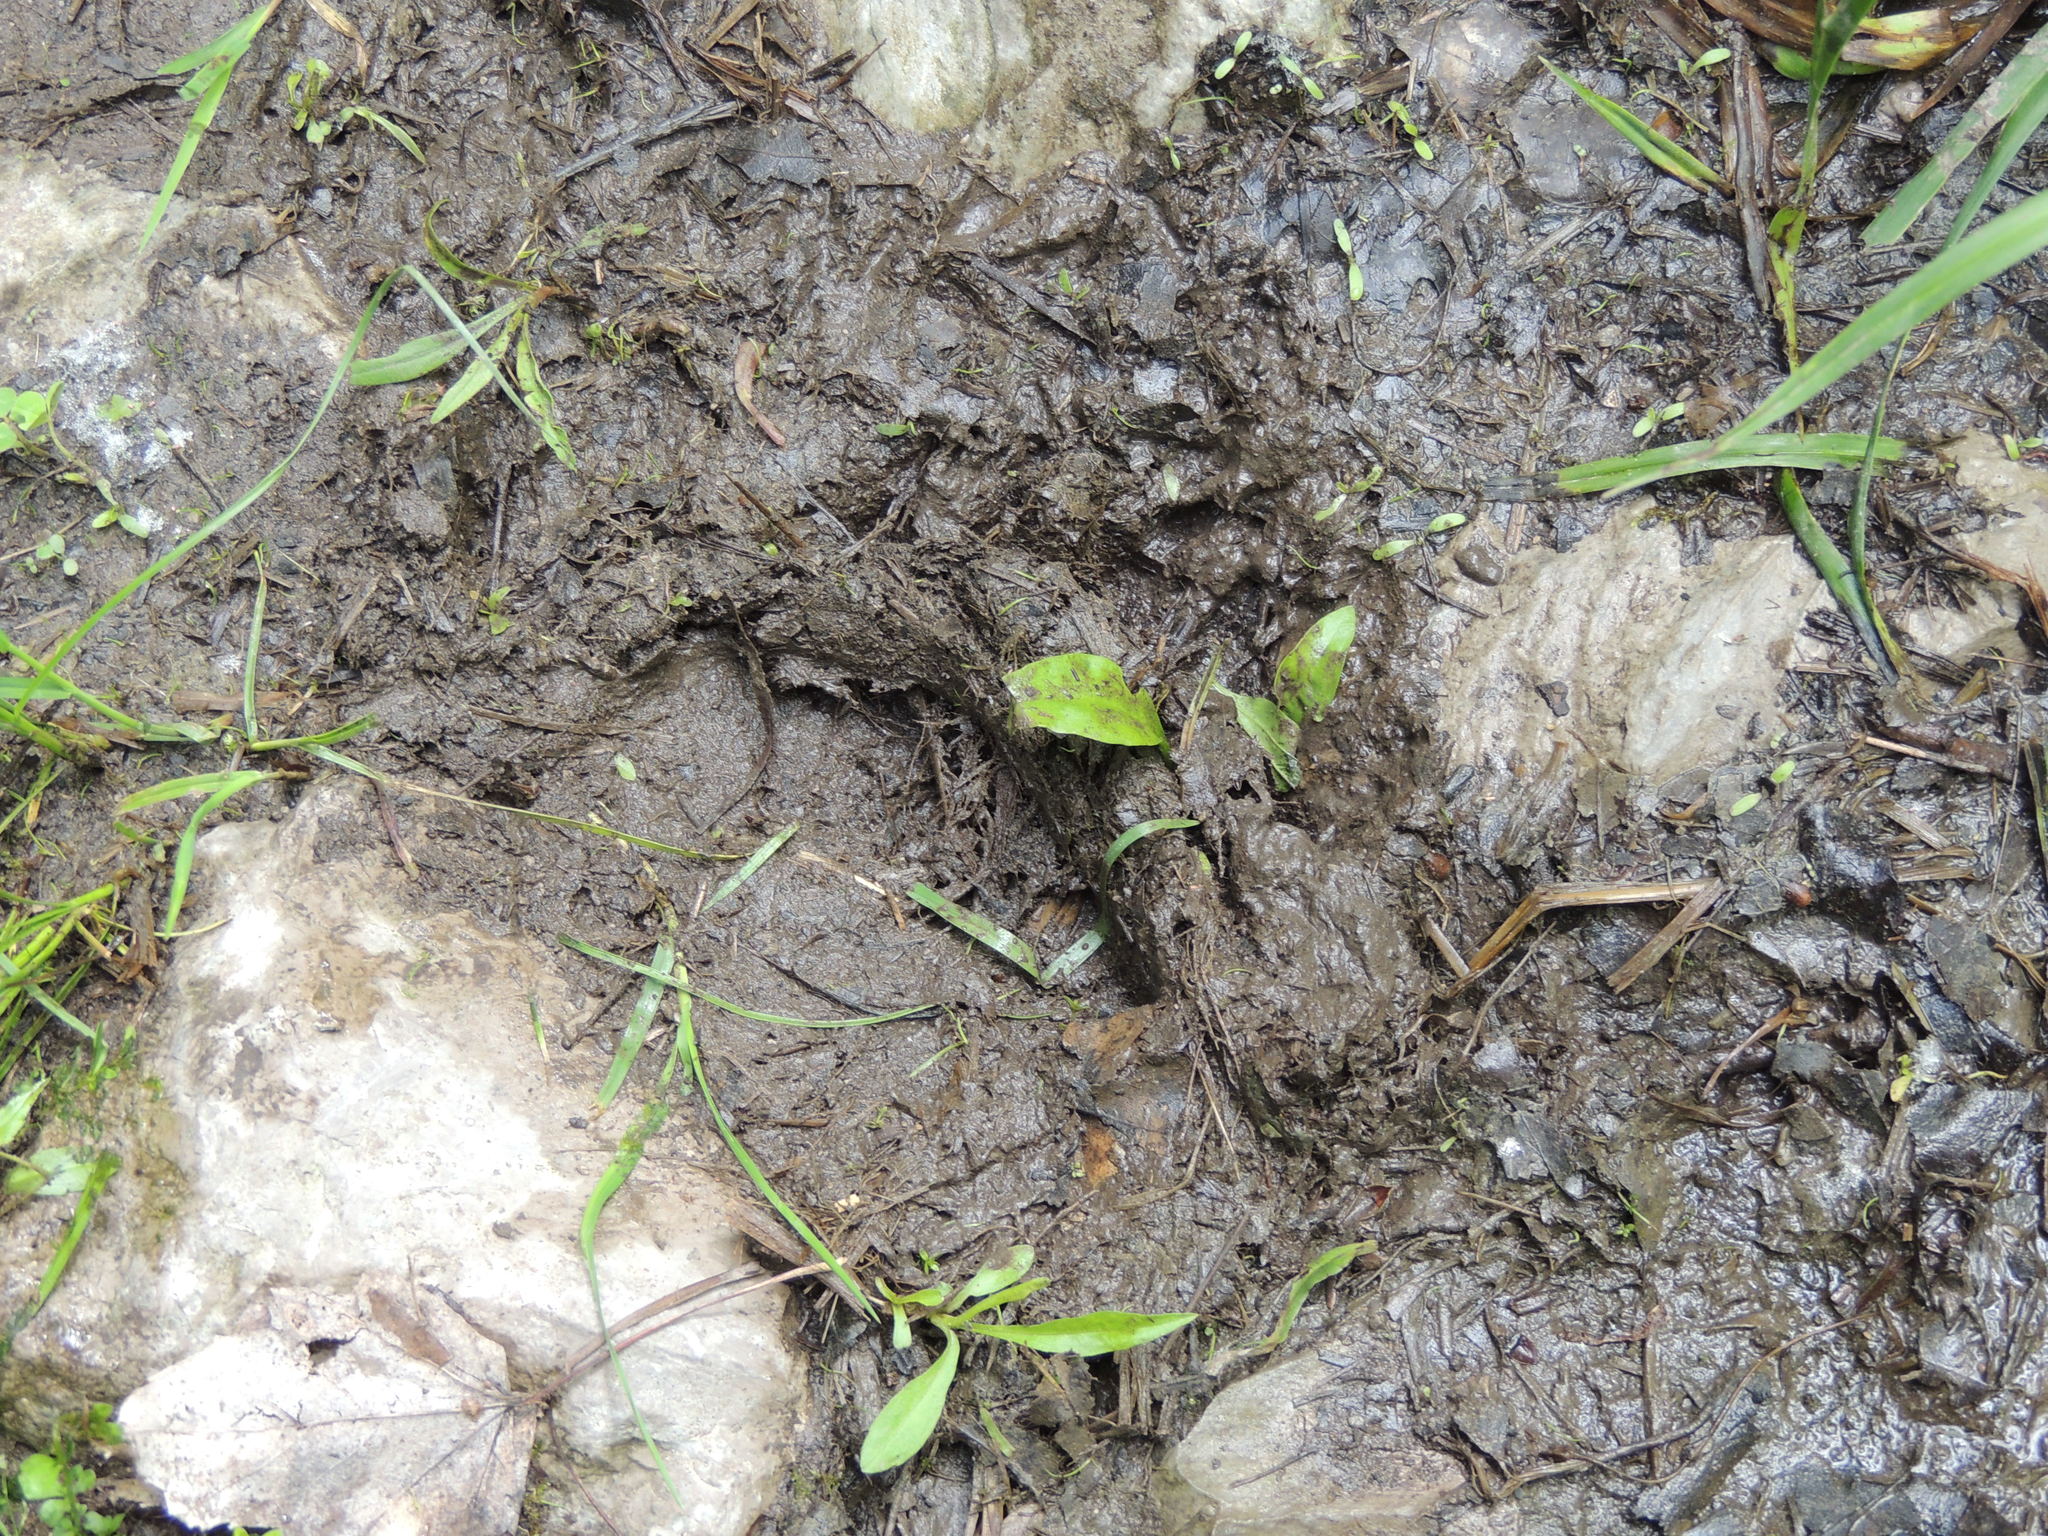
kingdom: Animalia
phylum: Chordata
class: Mammalia
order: Carnivora
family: Ursidae
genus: Ursus
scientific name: Ursus americanus
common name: American black bear
